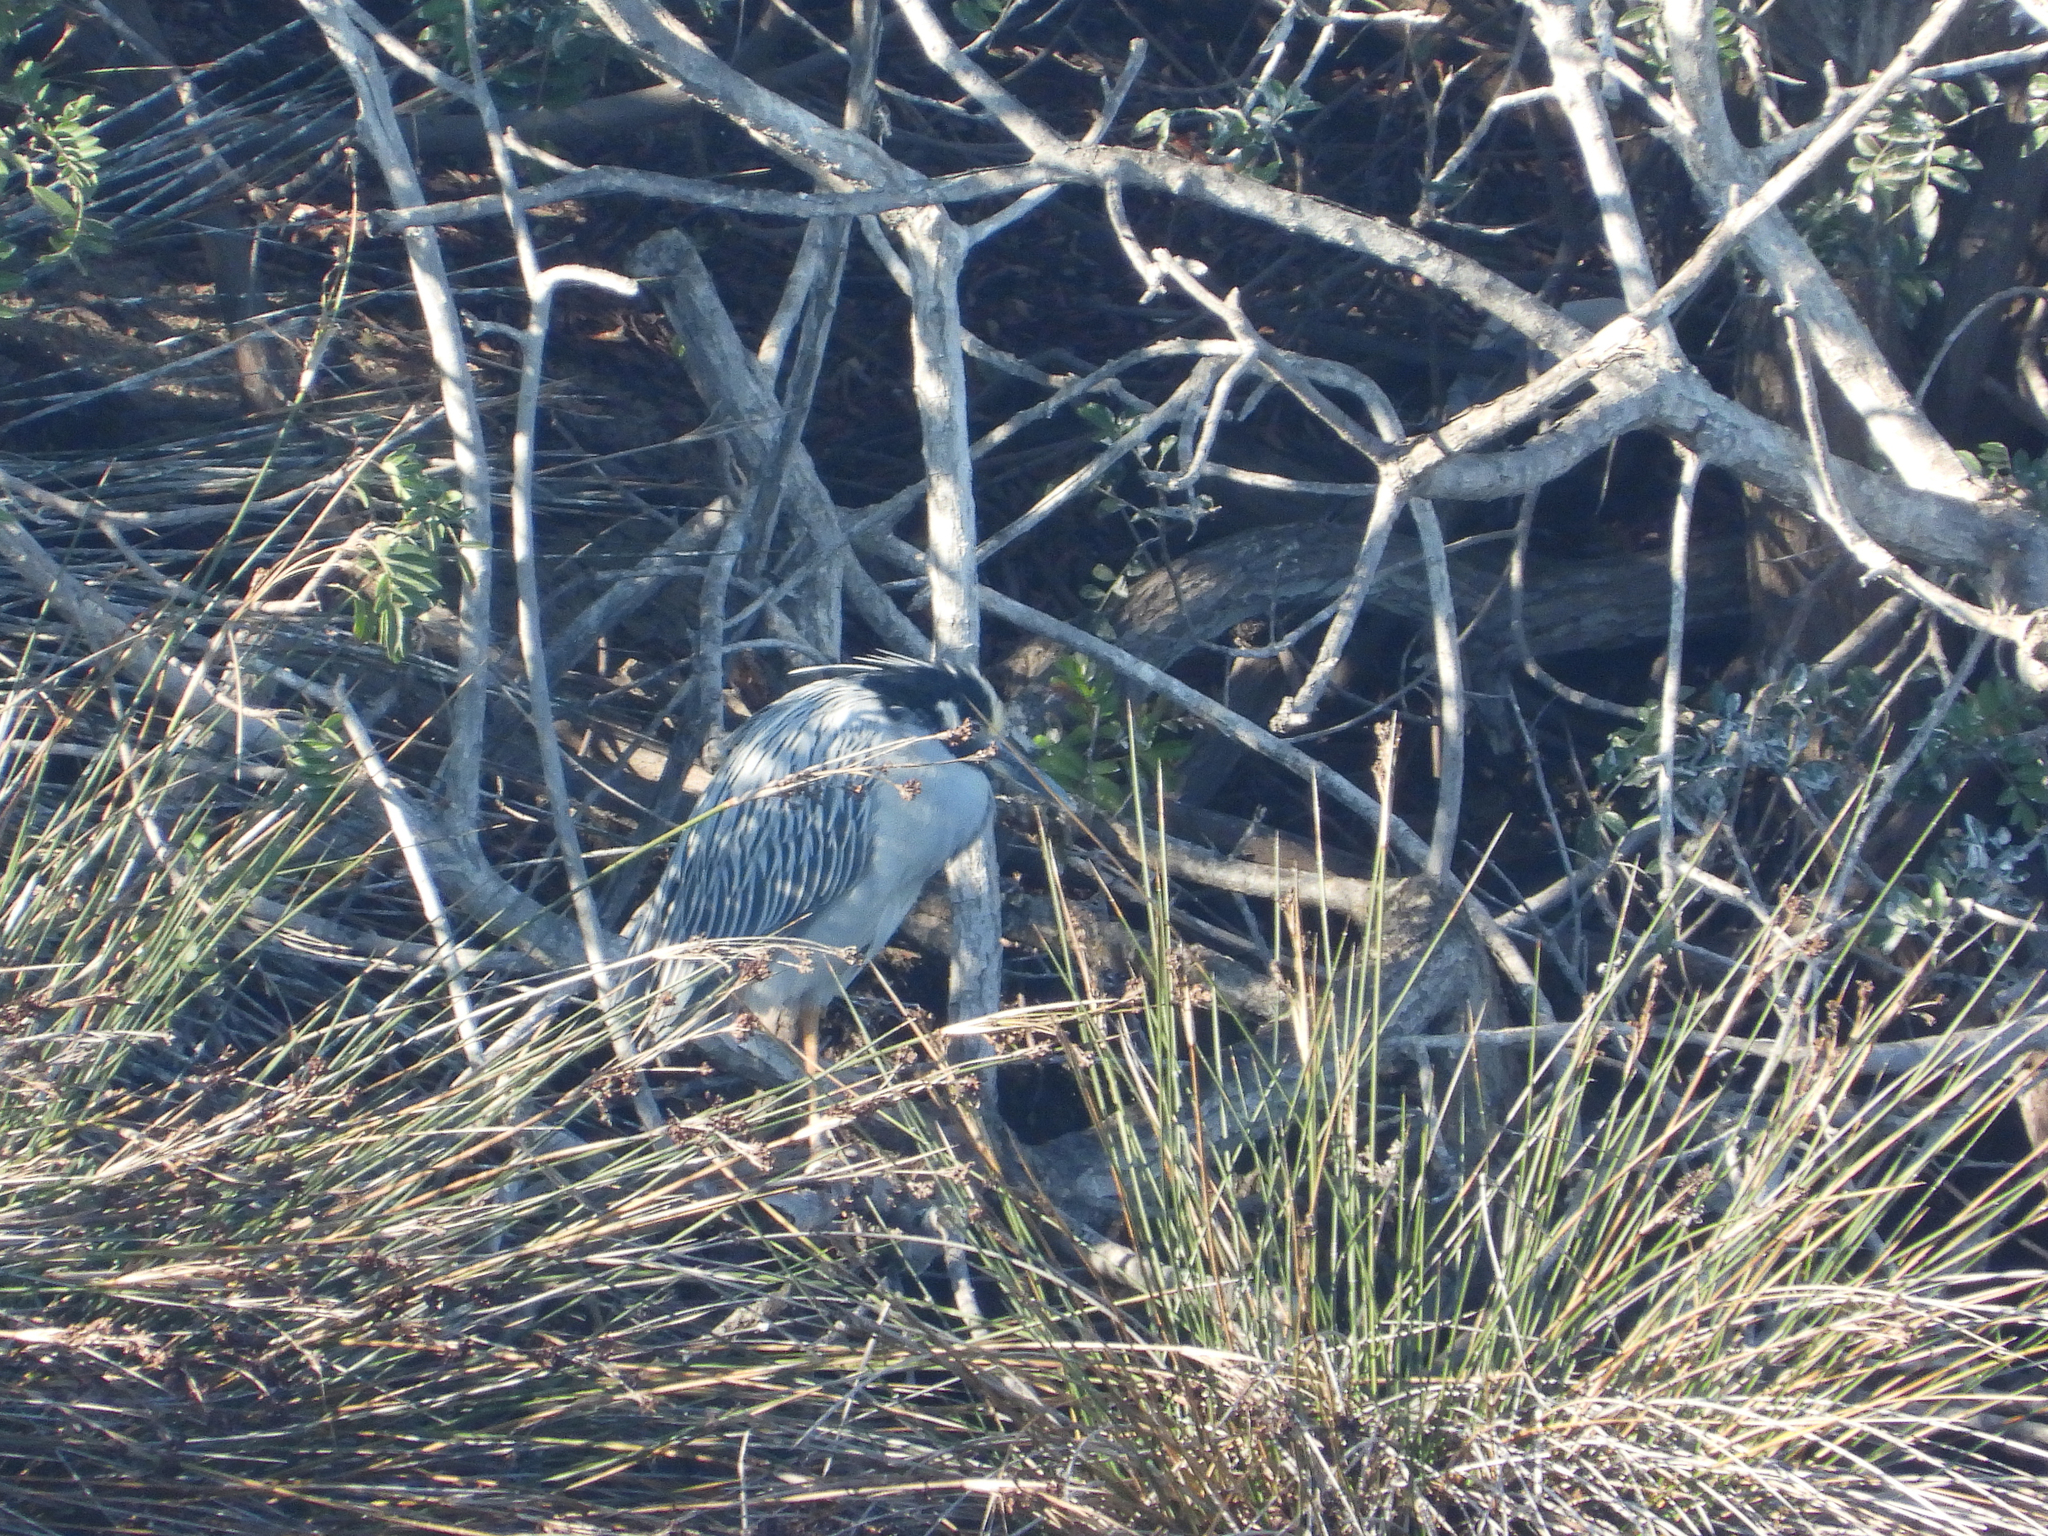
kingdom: Animalia
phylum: Chordata
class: Aves
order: Pelecaniformes
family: Ardeidae
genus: Nyctanassa
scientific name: Nyctanassa violacea
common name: Yellow-crowned night heron
